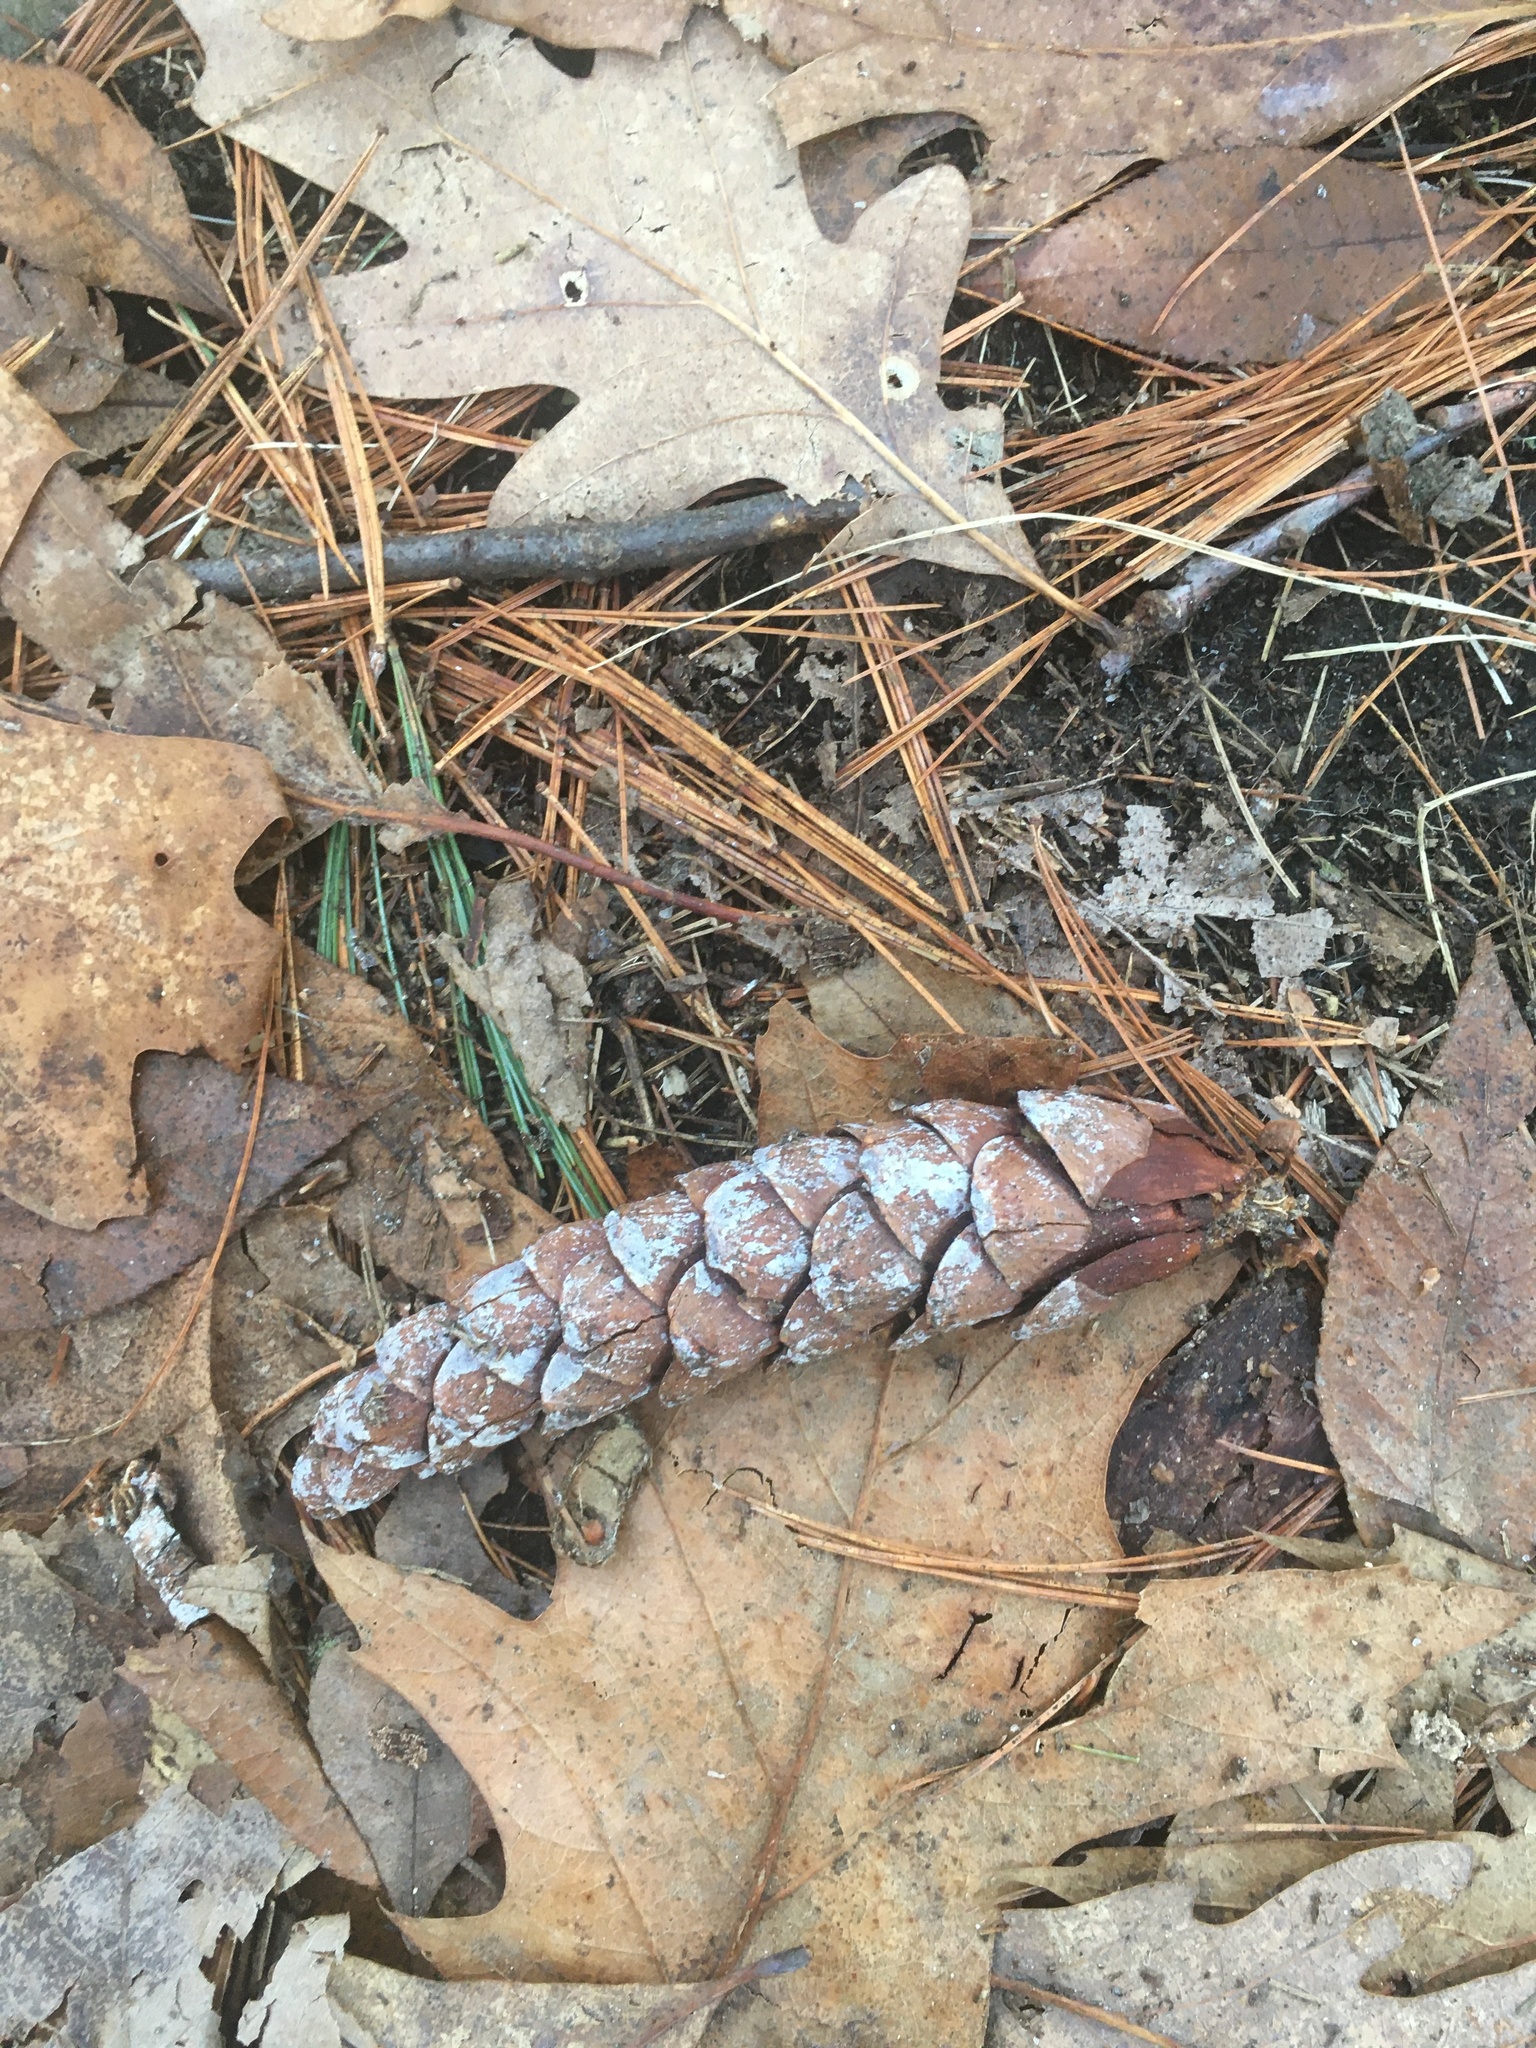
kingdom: Plantae
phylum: Tracheophyta
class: Pinopsida
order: Pinales
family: Pinaceae
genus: Pinus
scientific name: Pinus strobus
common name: Weymouth pine
